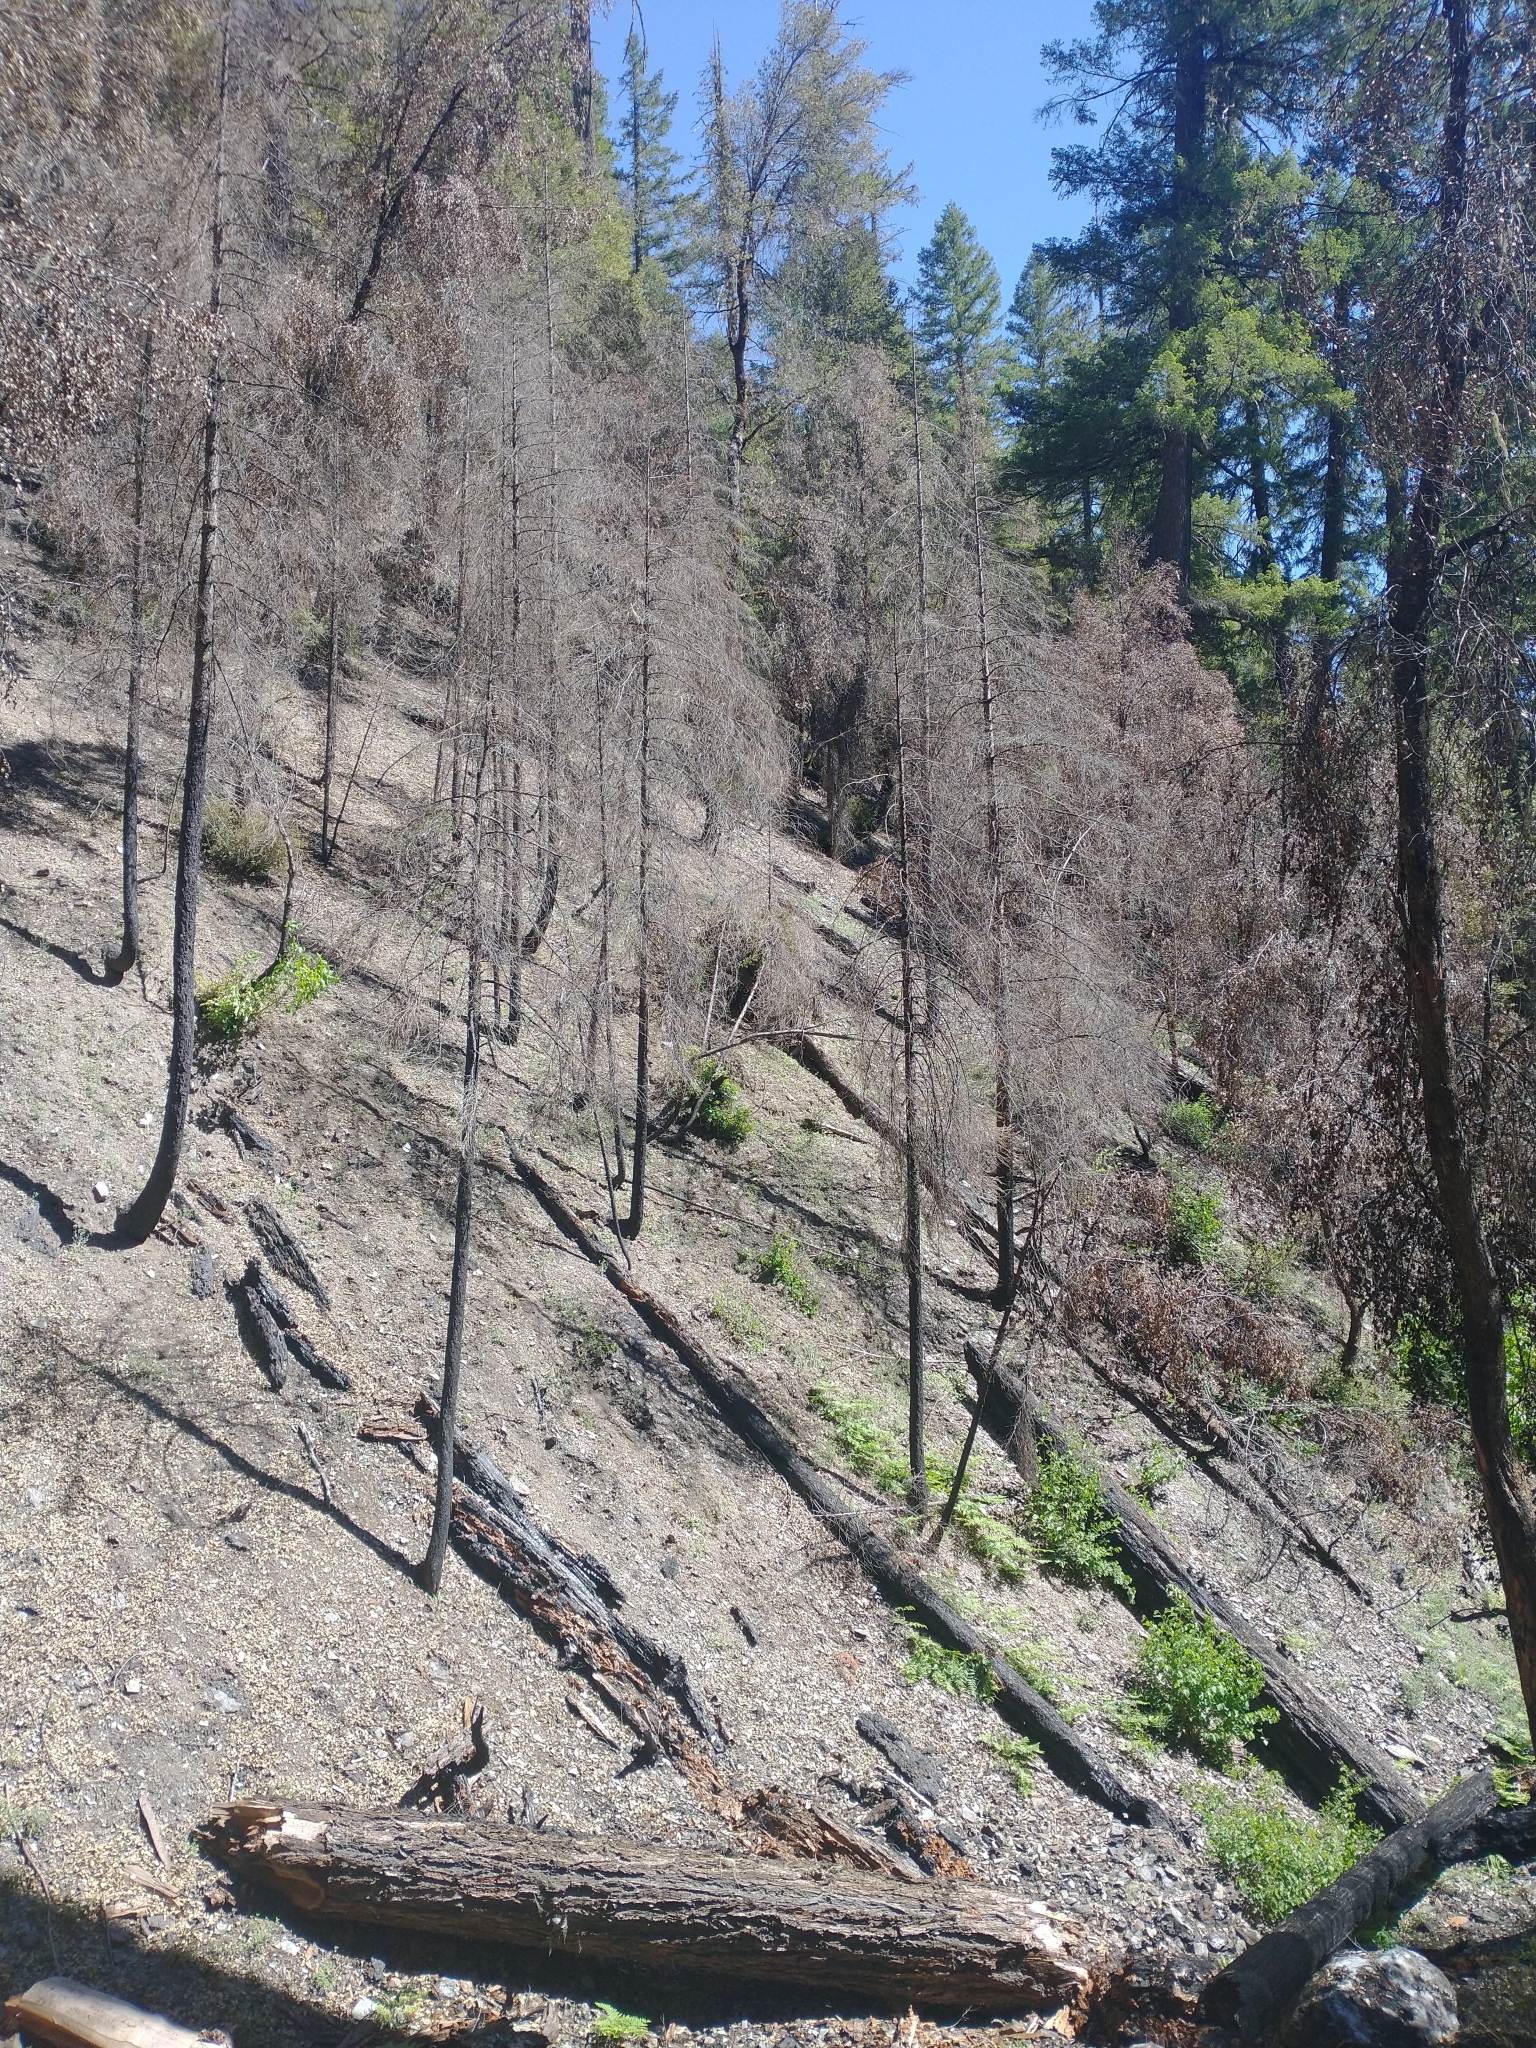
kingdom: Plantae
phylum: Tracheophyta
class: Pinopsida
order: Pinales
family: Pinaceae
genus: Pseudotsuga
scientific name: Pseudotsuga menziesii
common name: Douglas fir
